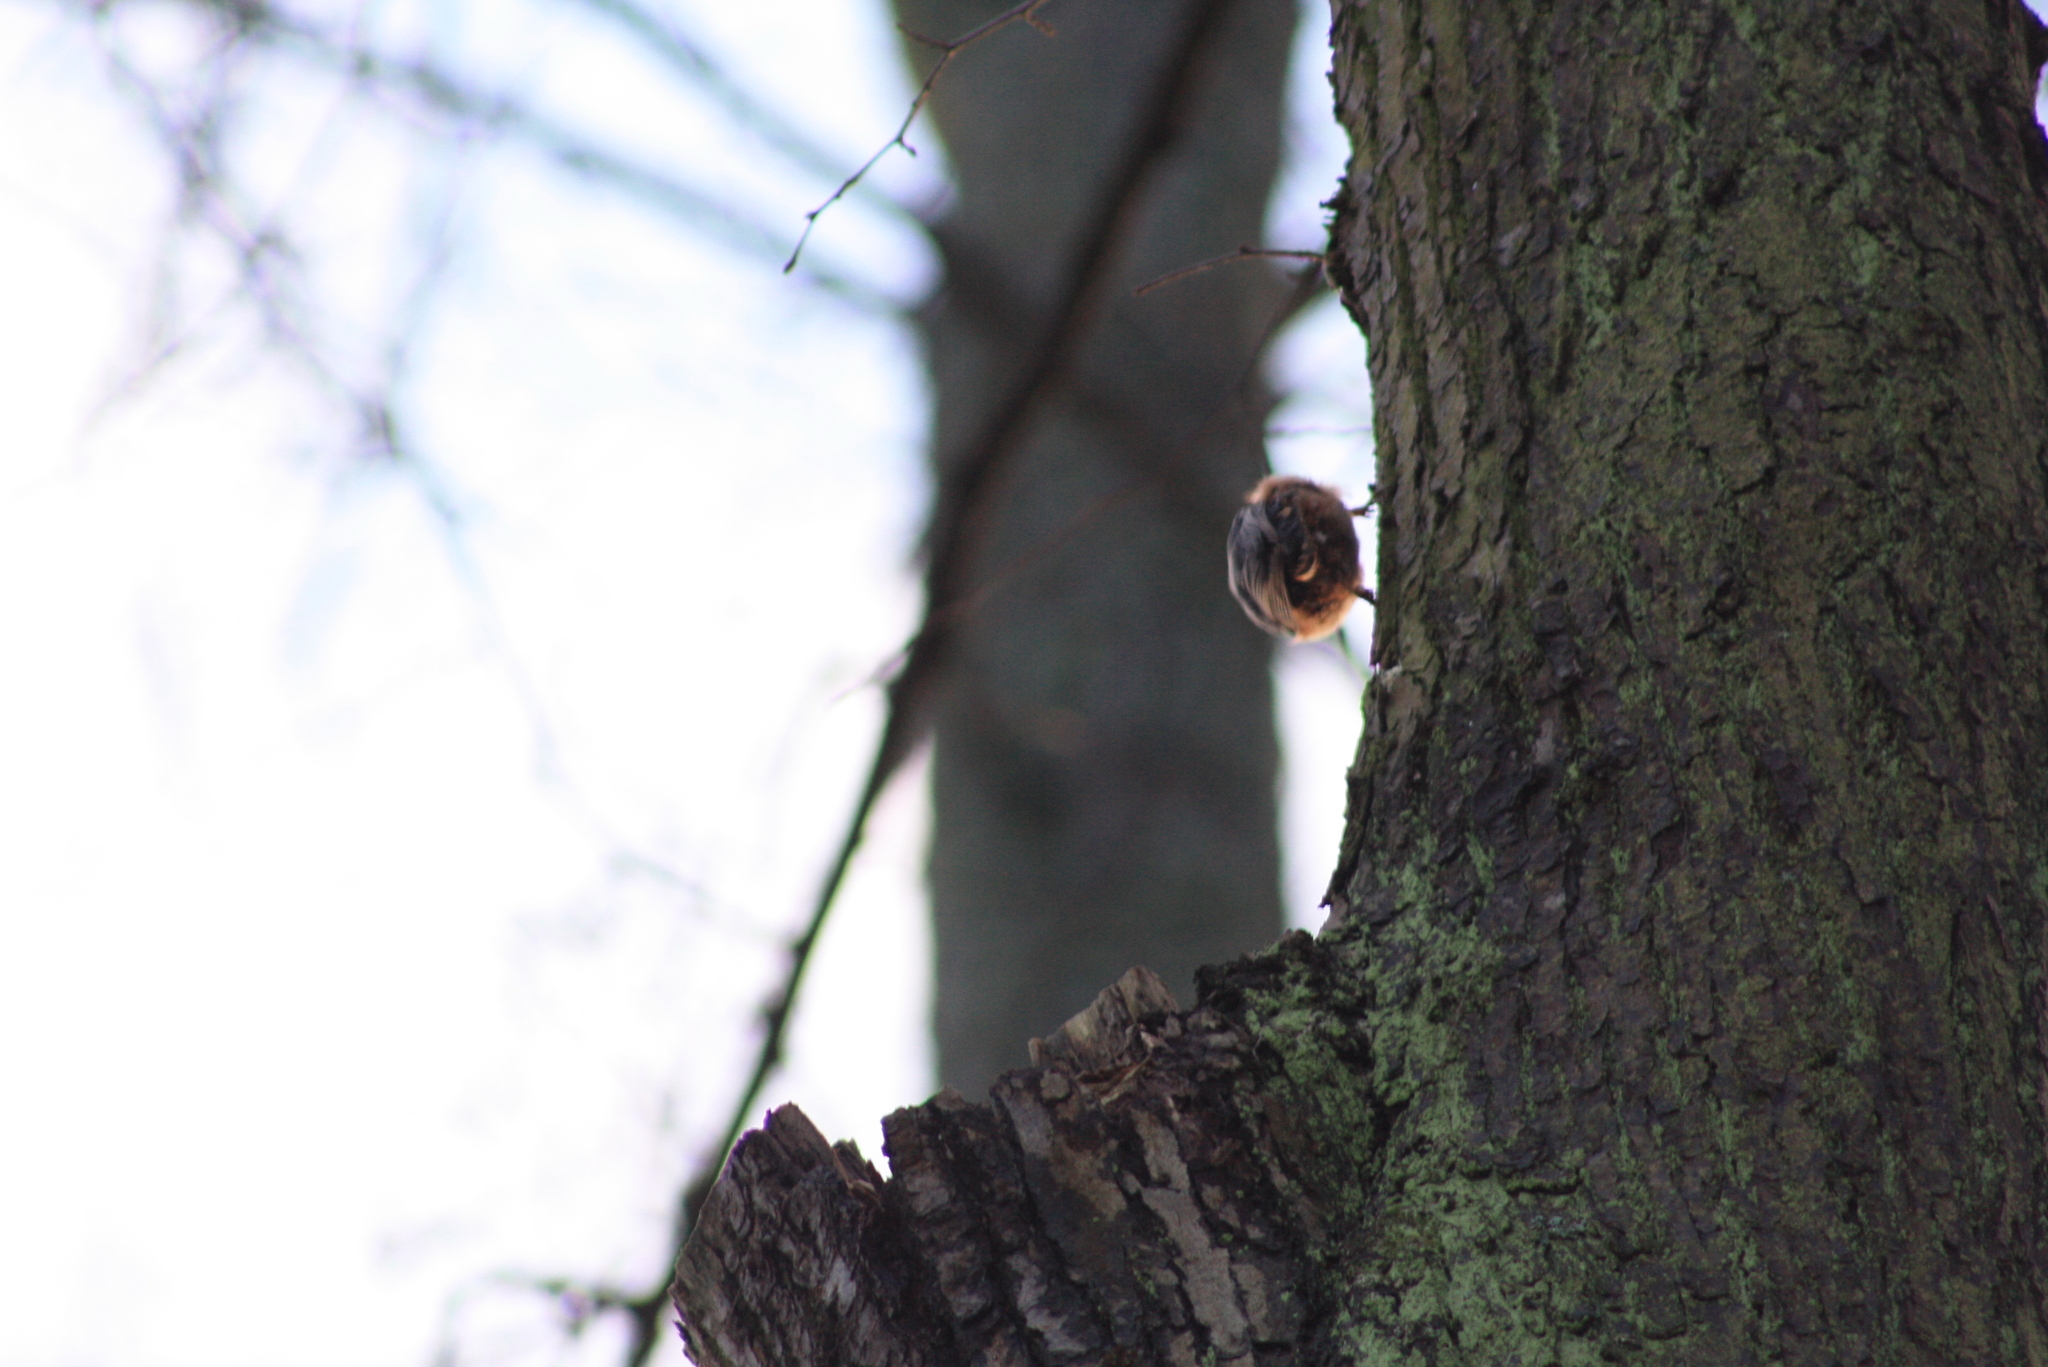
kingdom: Animalia
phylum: Chordata
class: Aves
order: Passeriformes
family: Sittidae
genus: Sitta
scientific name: Sitta europaea
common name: Eurasian nuthatch
